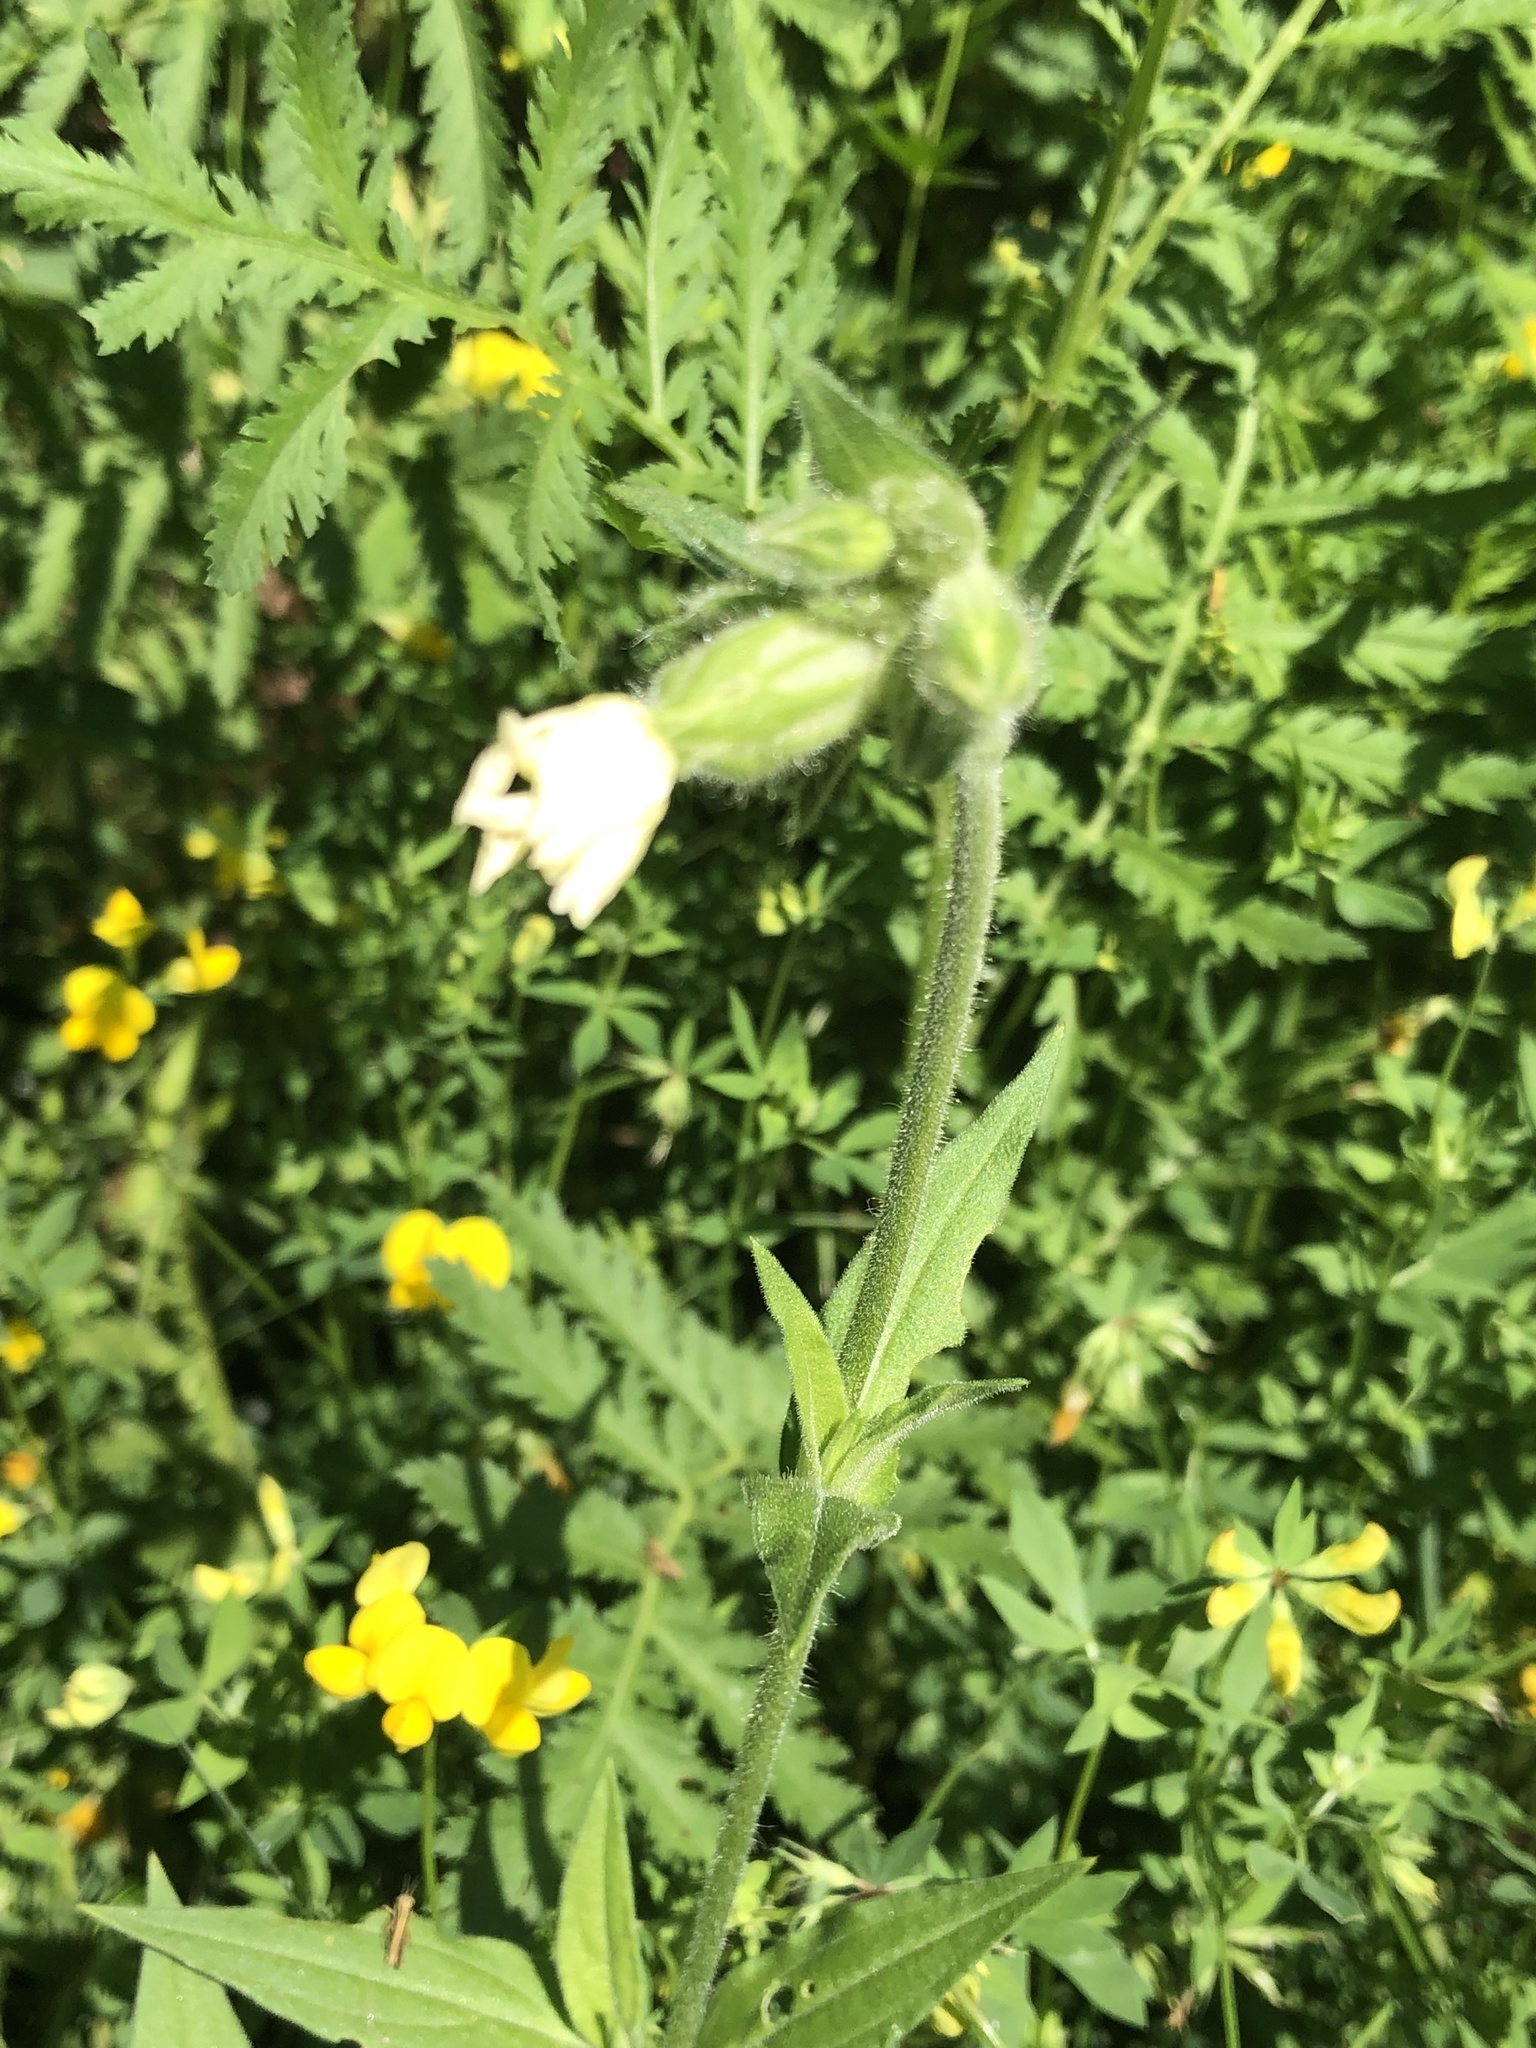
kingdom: Plantae
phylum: Tracheophyta
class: Magnoliopsida
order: Caryophyllales
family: Caryophyllaceae
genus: Silene
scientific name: Silene latifolia
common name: White campion
